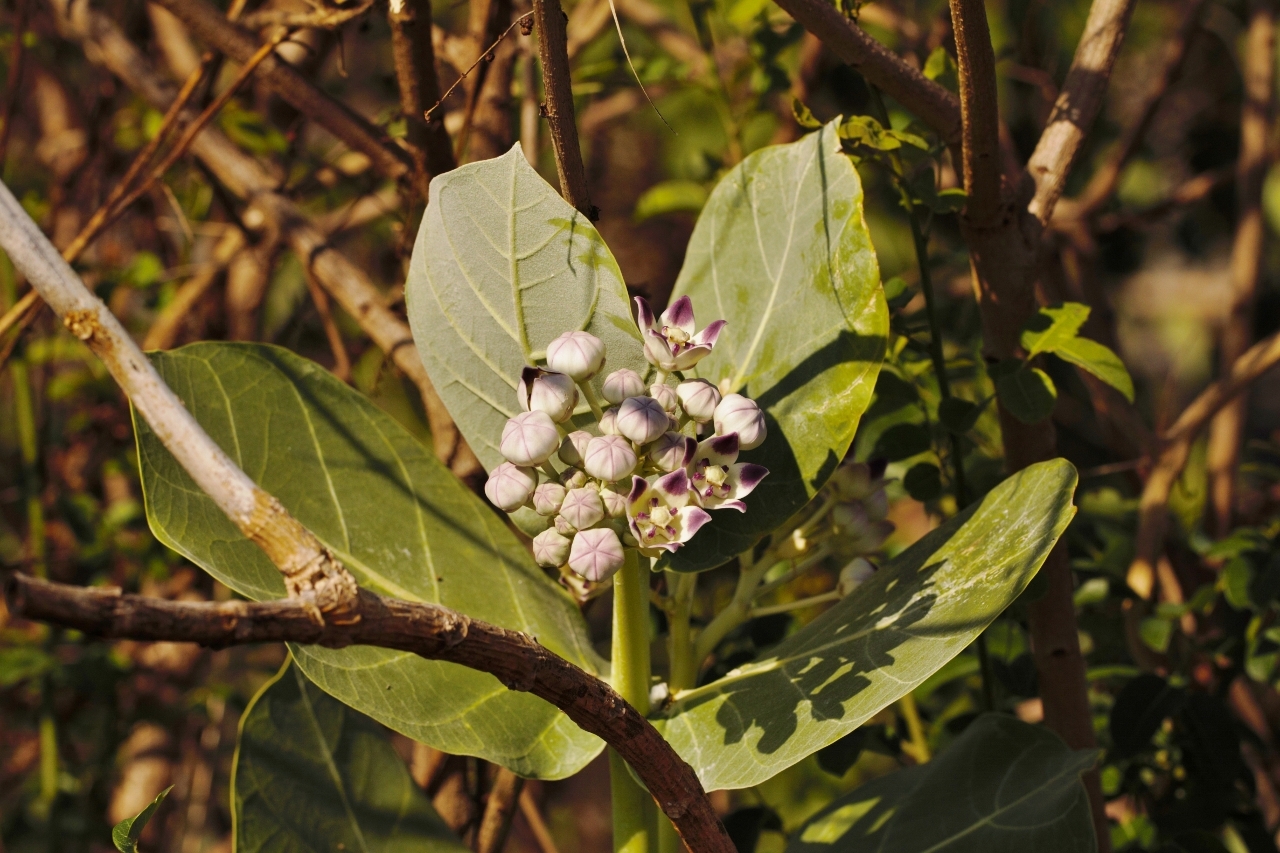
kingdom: Plantae
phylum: Tracheophyta
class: Magnoliopsida
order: Gentianales
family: Apocynaceae
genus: Calotropis
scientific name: Calotropis procera
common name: Roostertree
